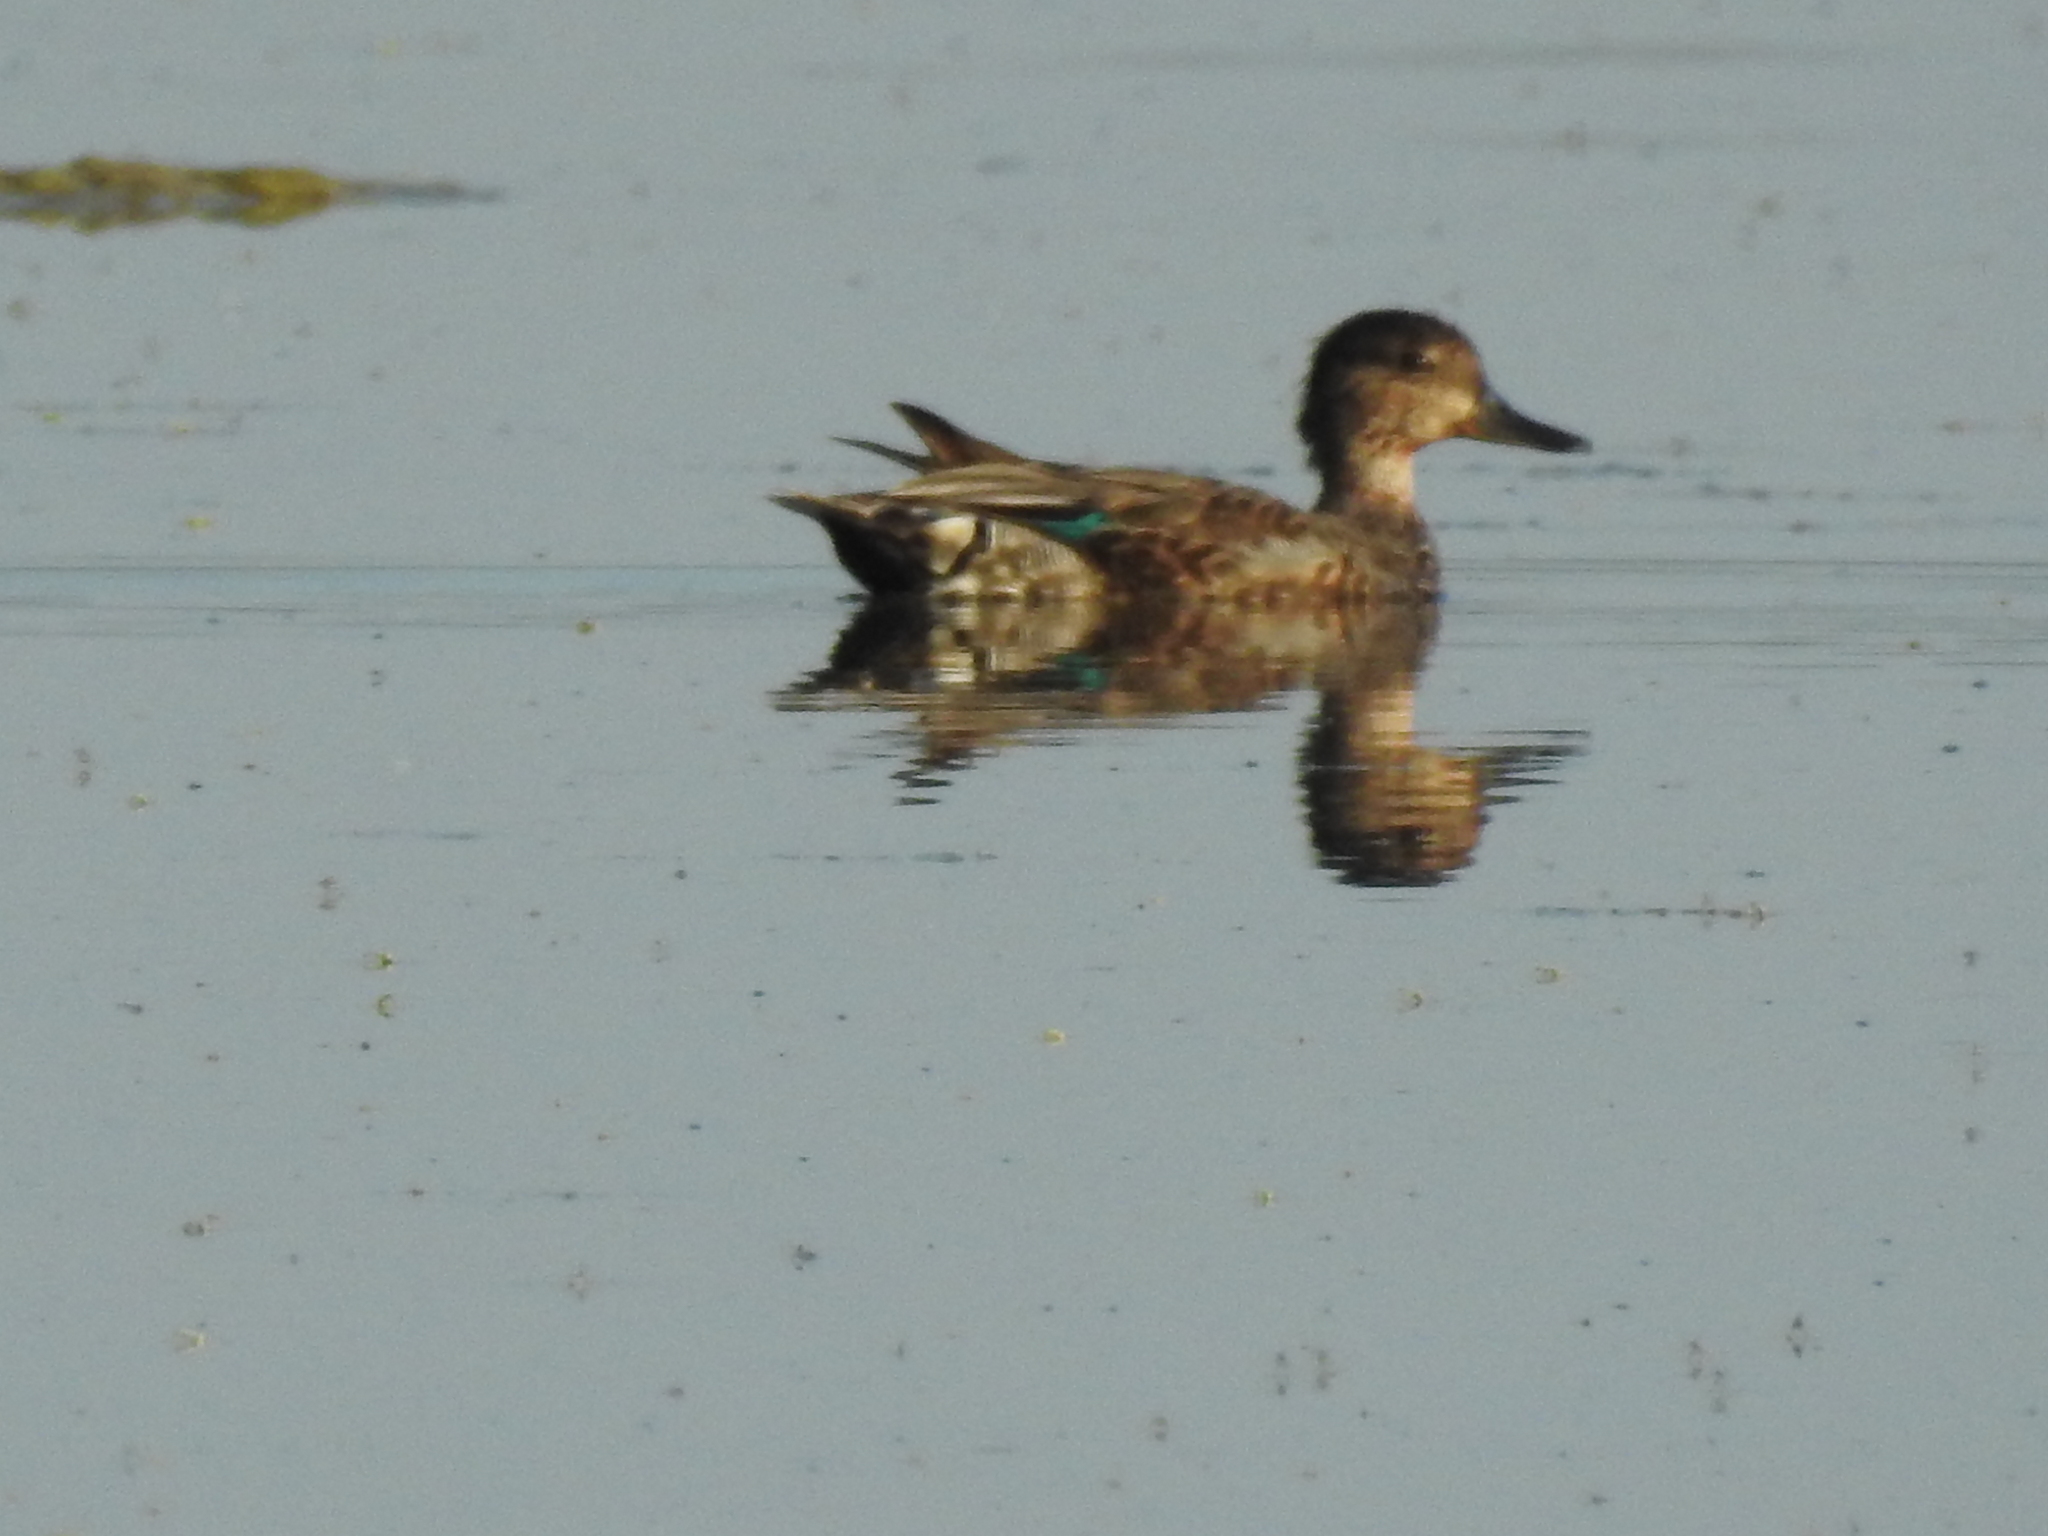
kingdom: Animalia
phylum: Chordata
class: Aves
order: Anseriformes
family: Anatidae
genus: Anas
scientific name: Anas crecca
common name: Eurasian teal
